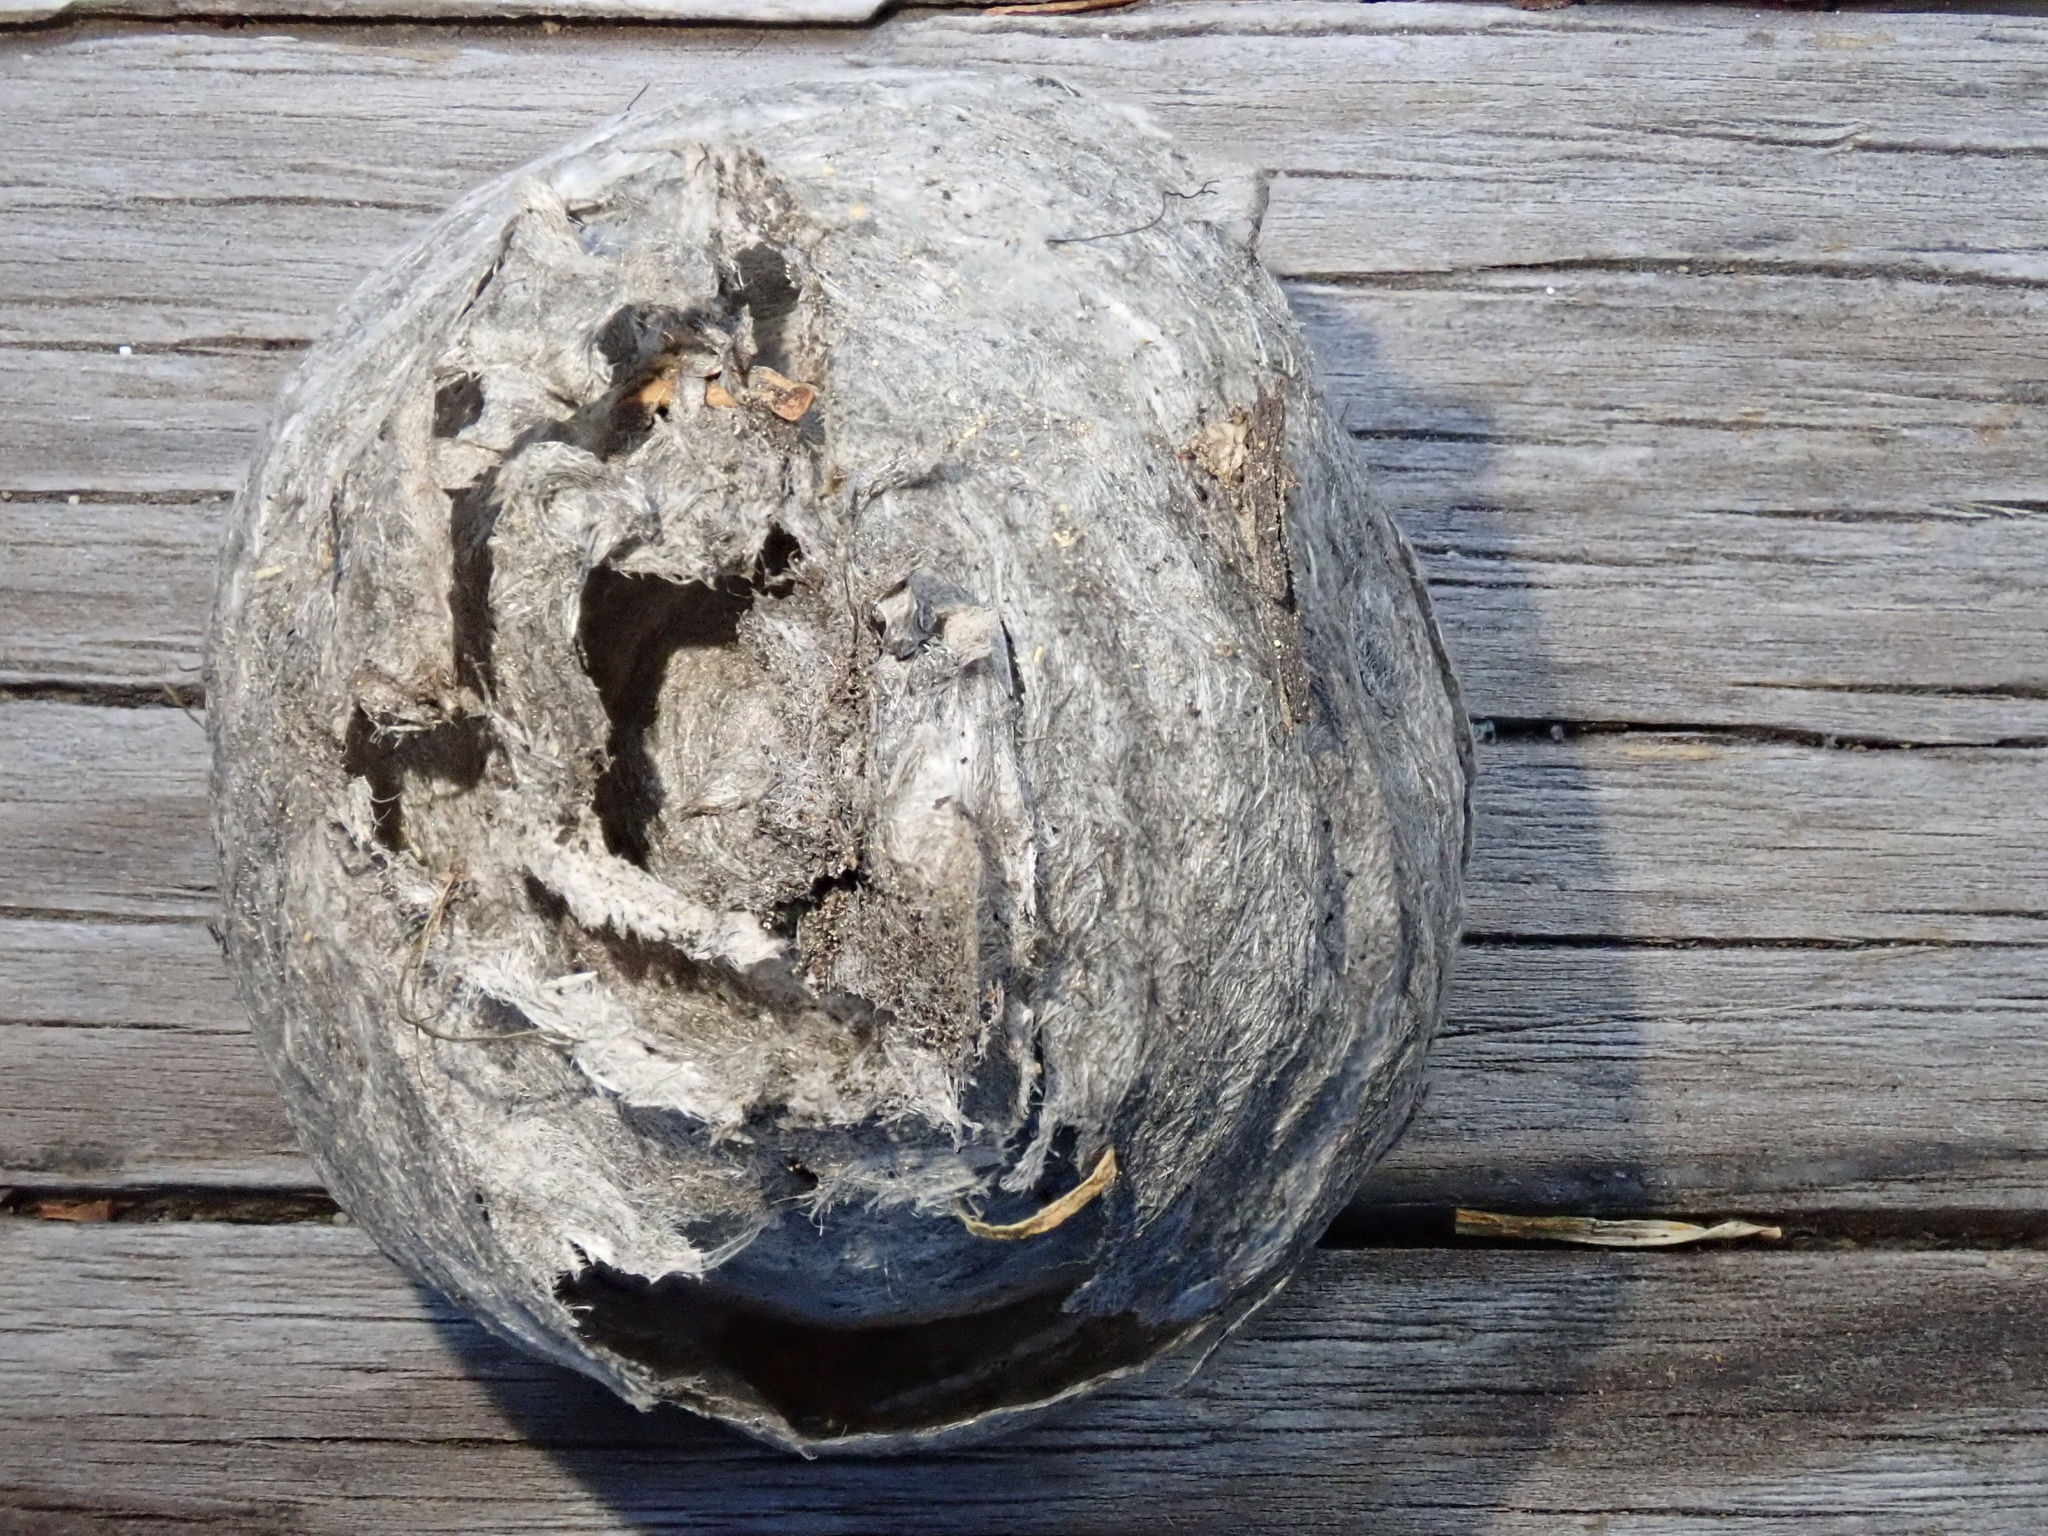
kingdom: Animalia
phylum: Arthropoda
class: Insecta
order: Hymenoptera
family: Vespidae
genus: Dolichovespula
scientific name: Dolichovespula
